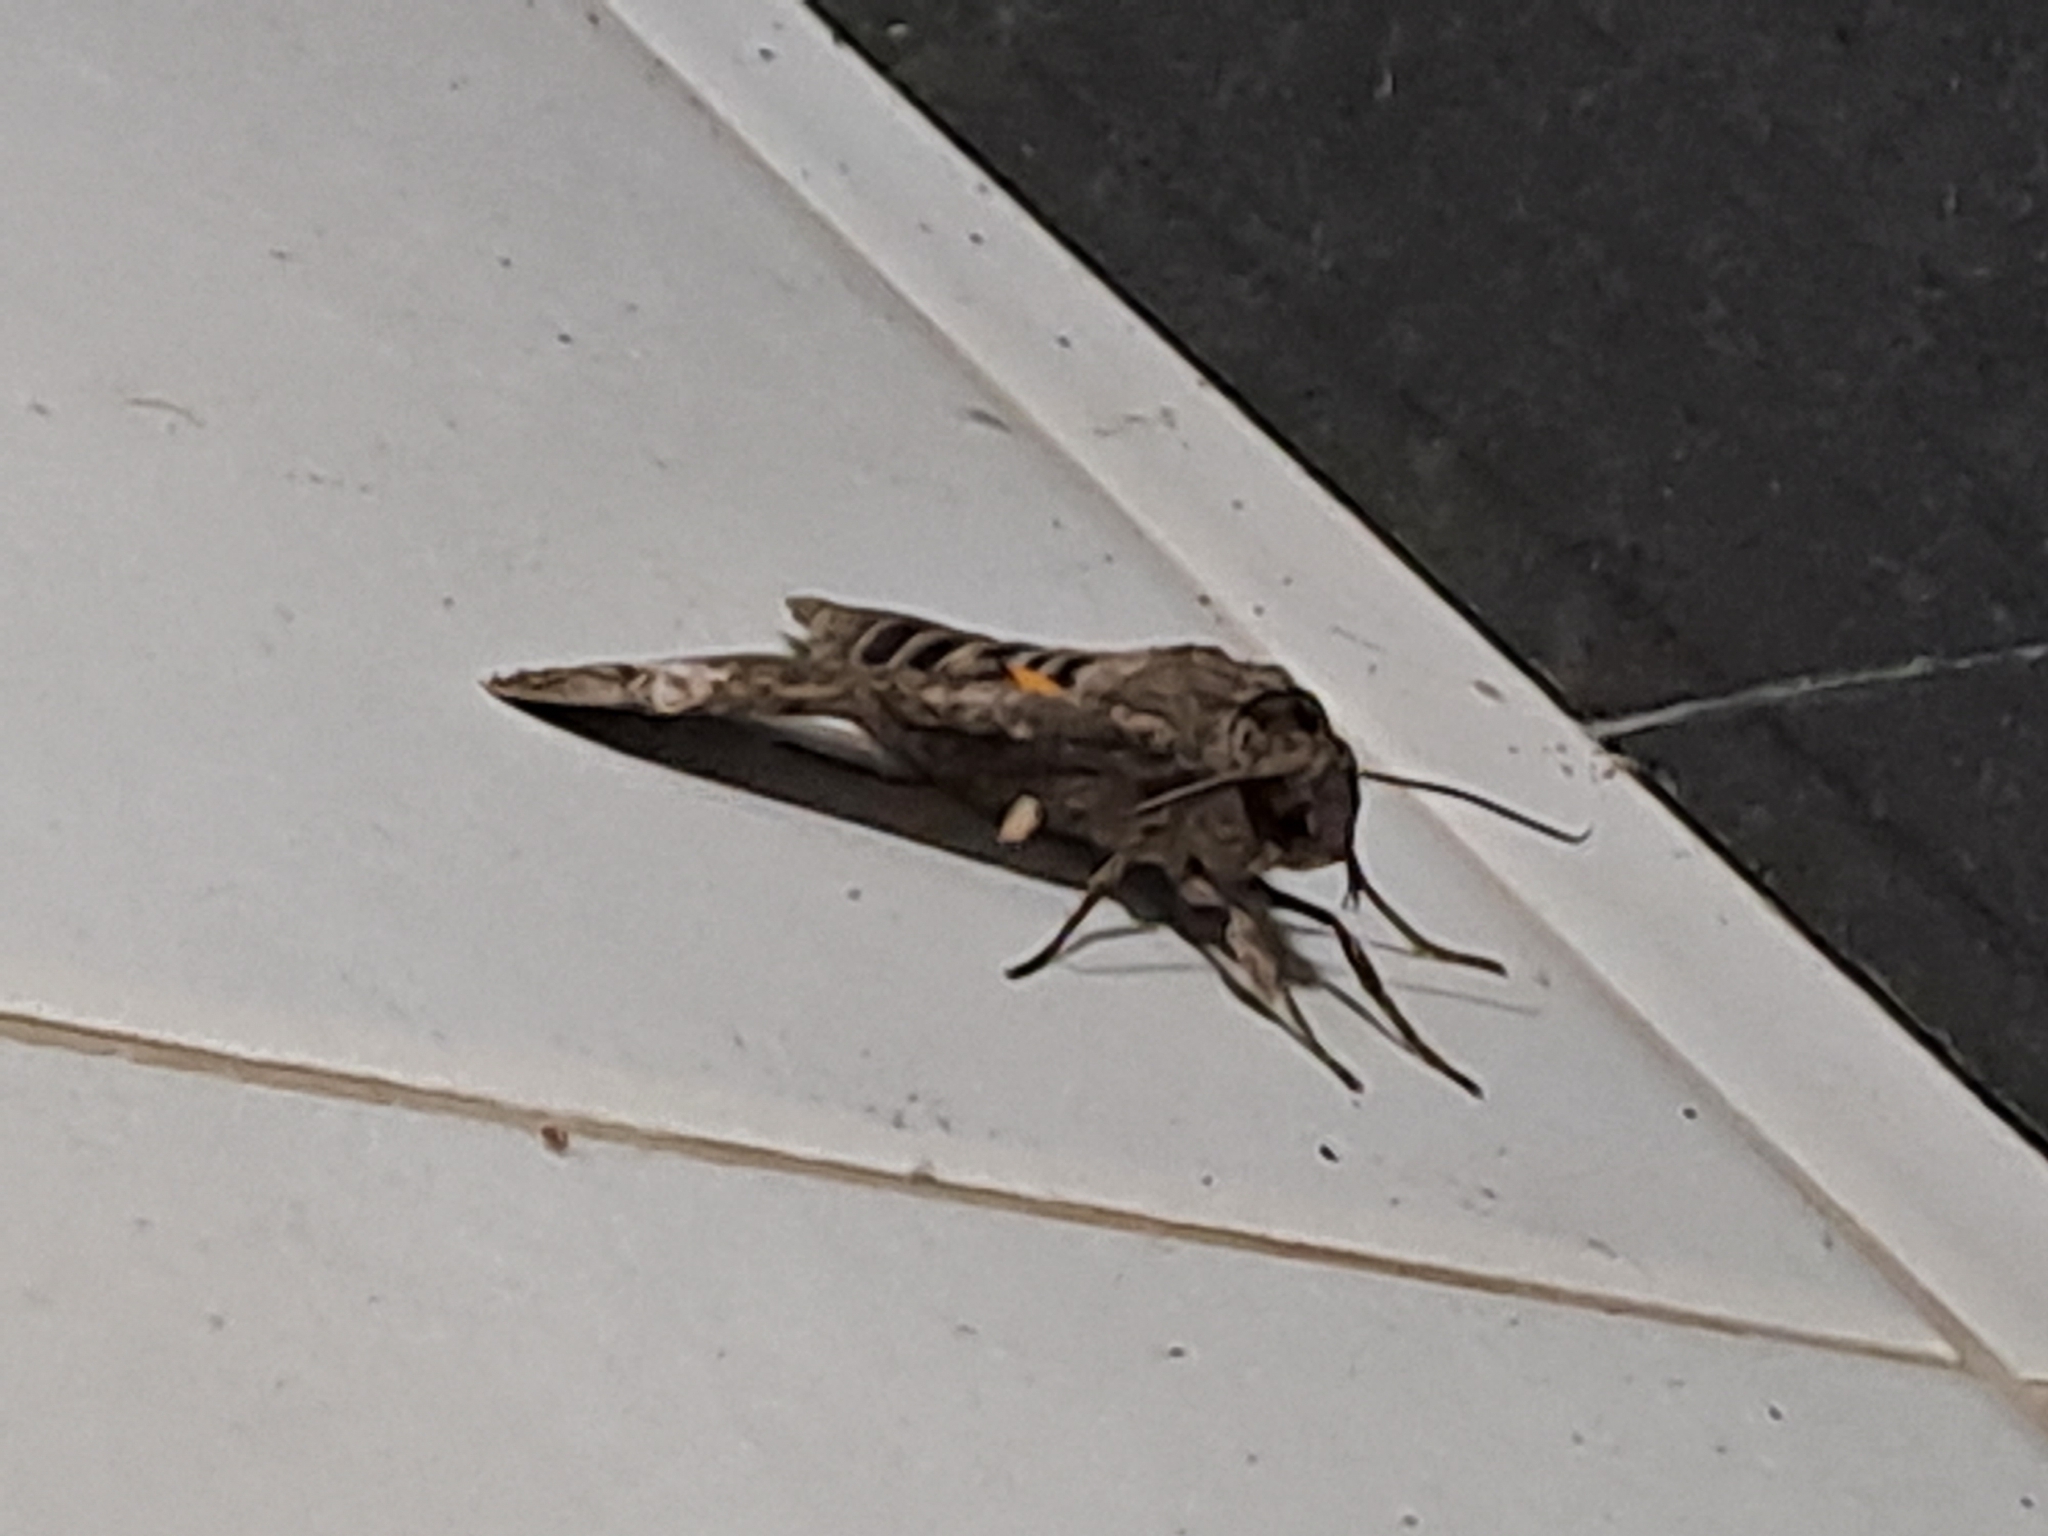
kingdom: Animalia
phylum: Arthropoda
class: Insecta
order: Lepidoptera
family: Sphingidae
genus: Isognathus
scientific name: Isognathus allamandae
